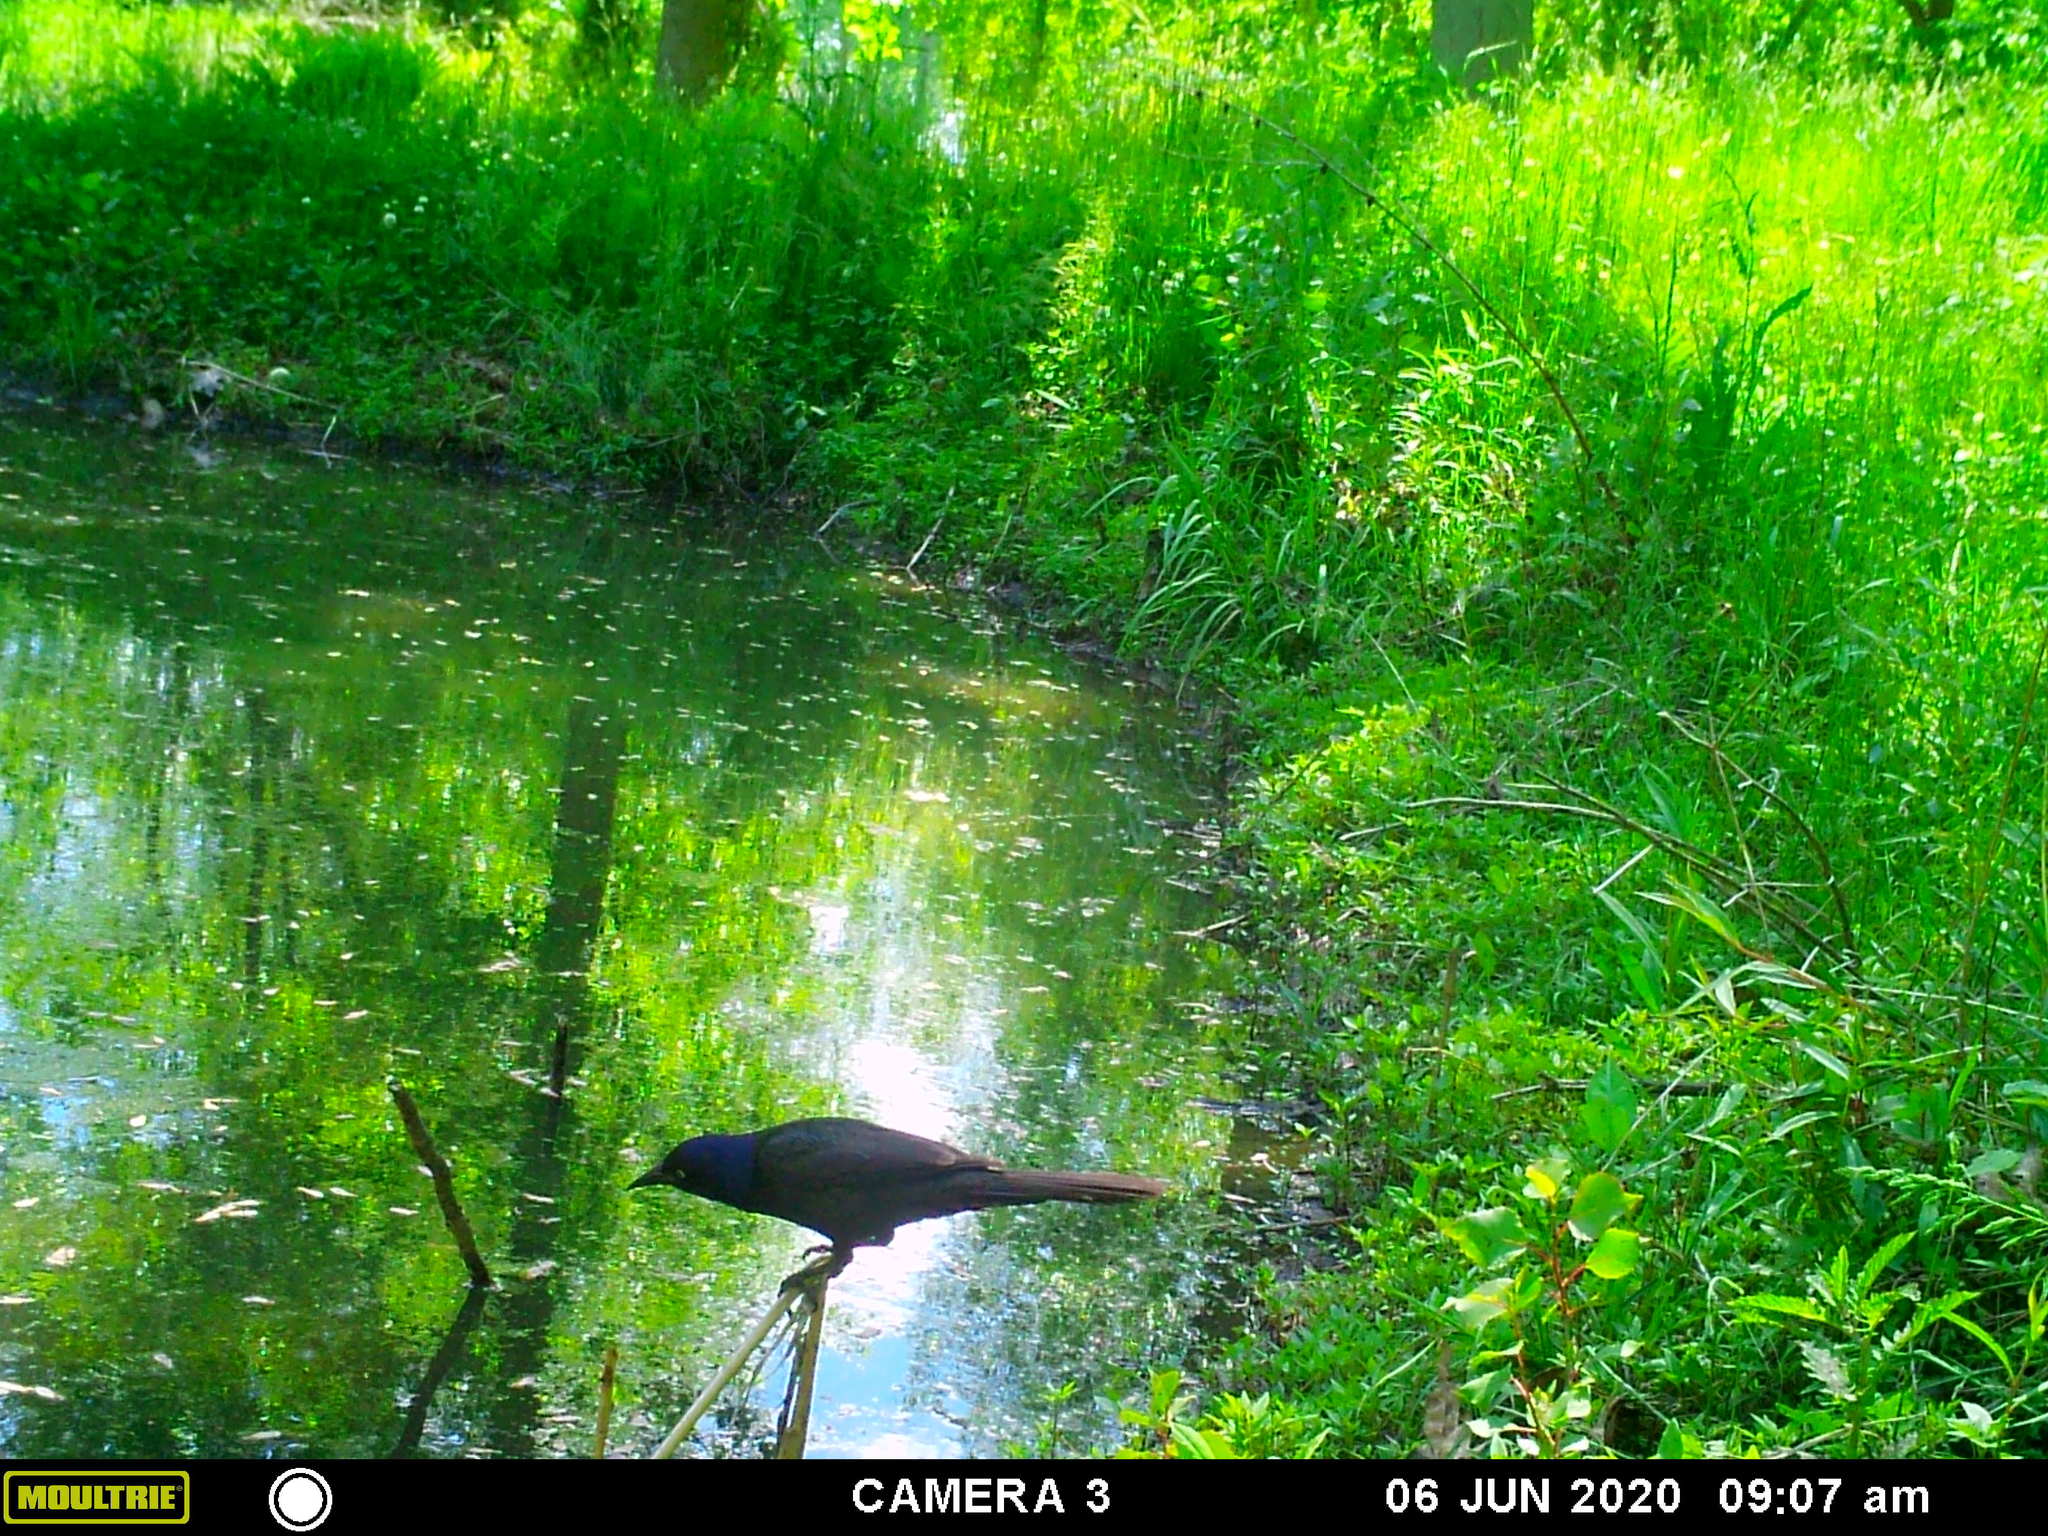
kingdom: Animalia
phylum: Chordata
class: Aves
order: Passeriformes
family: Icteridae
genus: Quiscalus
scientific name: Quiscalus quiscula
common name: Common grackle
